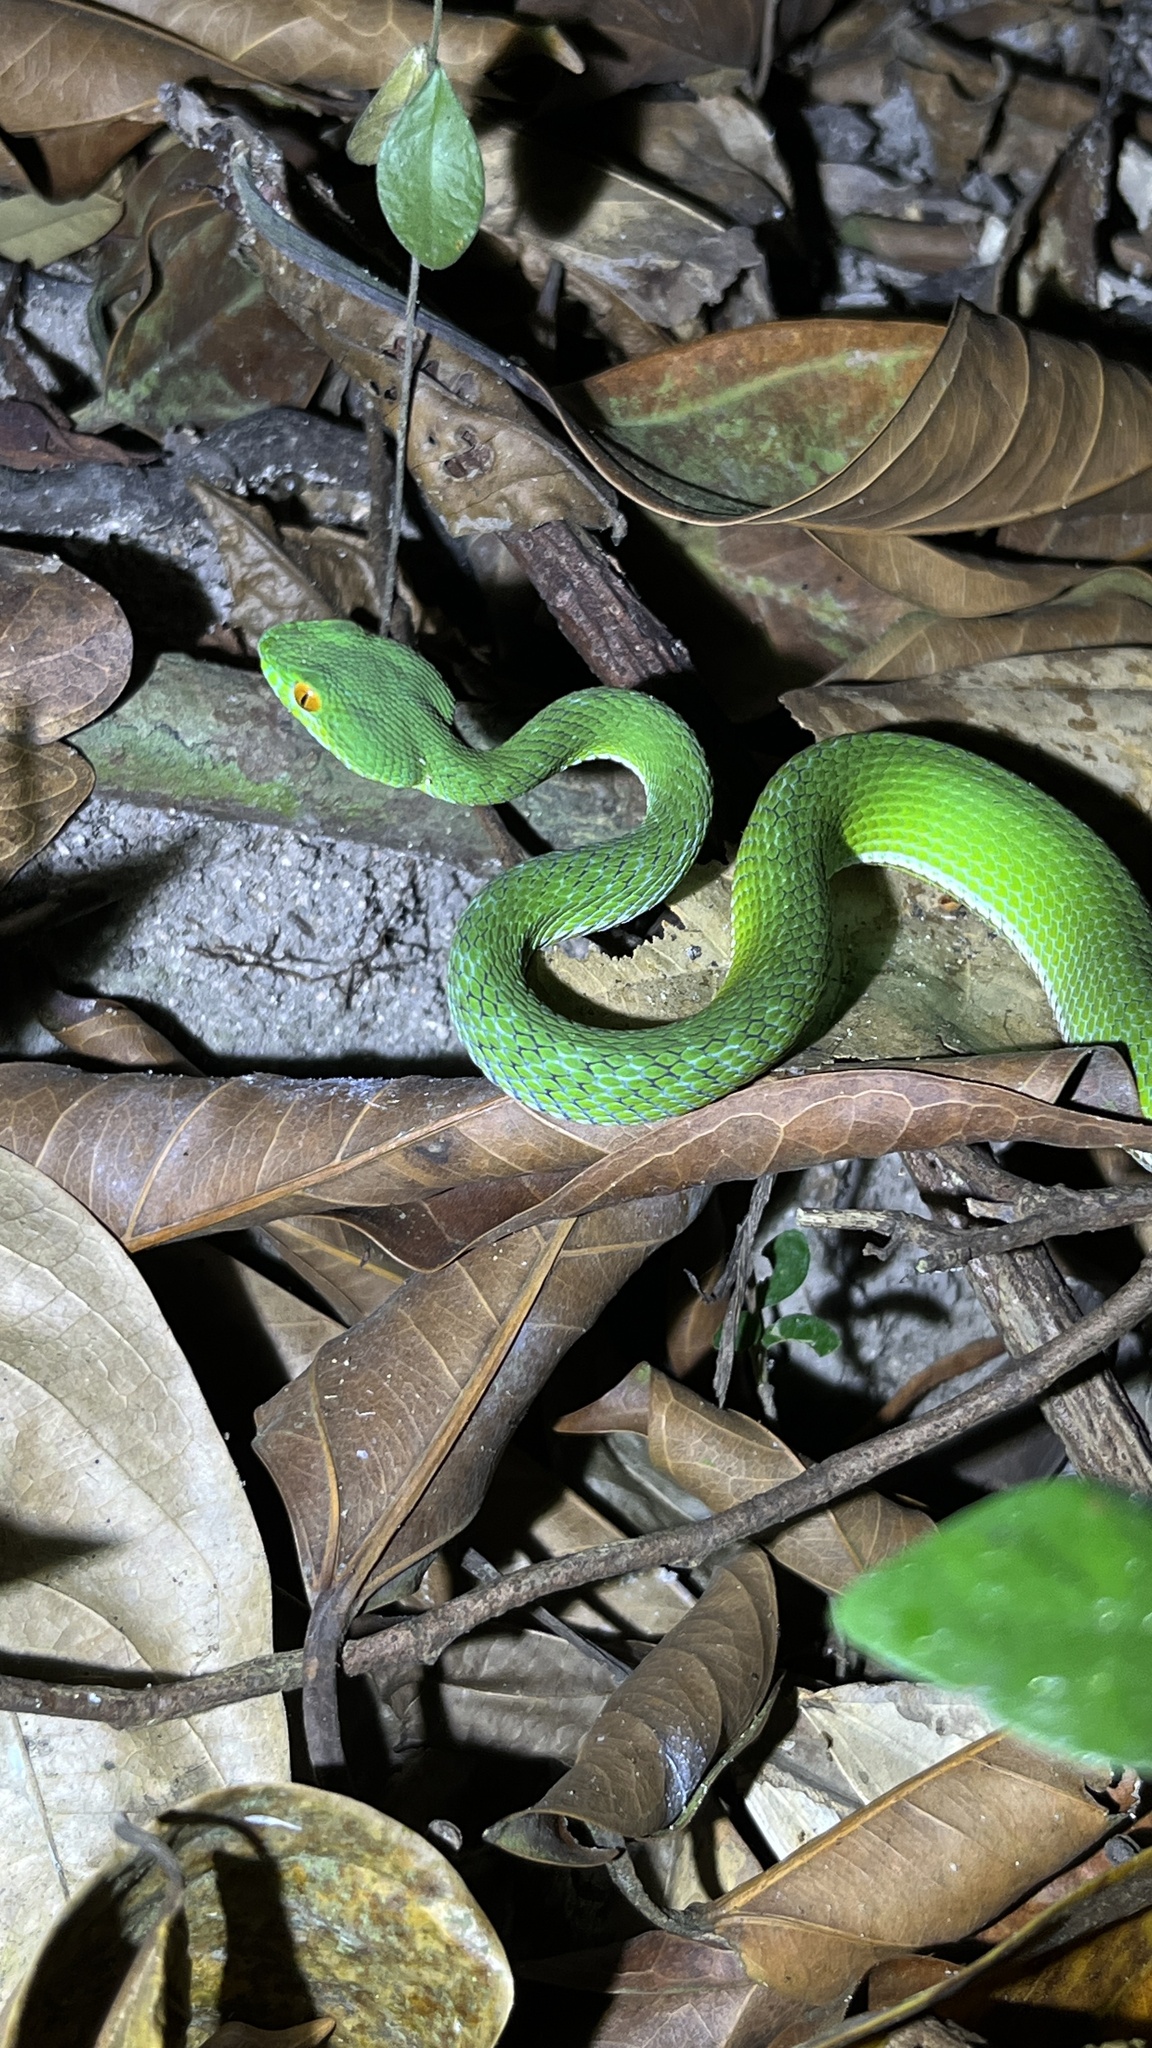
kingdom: Animalia
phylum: Chordata
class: Squamata
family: Viperidae
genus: Craspedocephalus
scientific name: Craspedocephalus rubeus
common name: Ruby-eyed green pitviper
